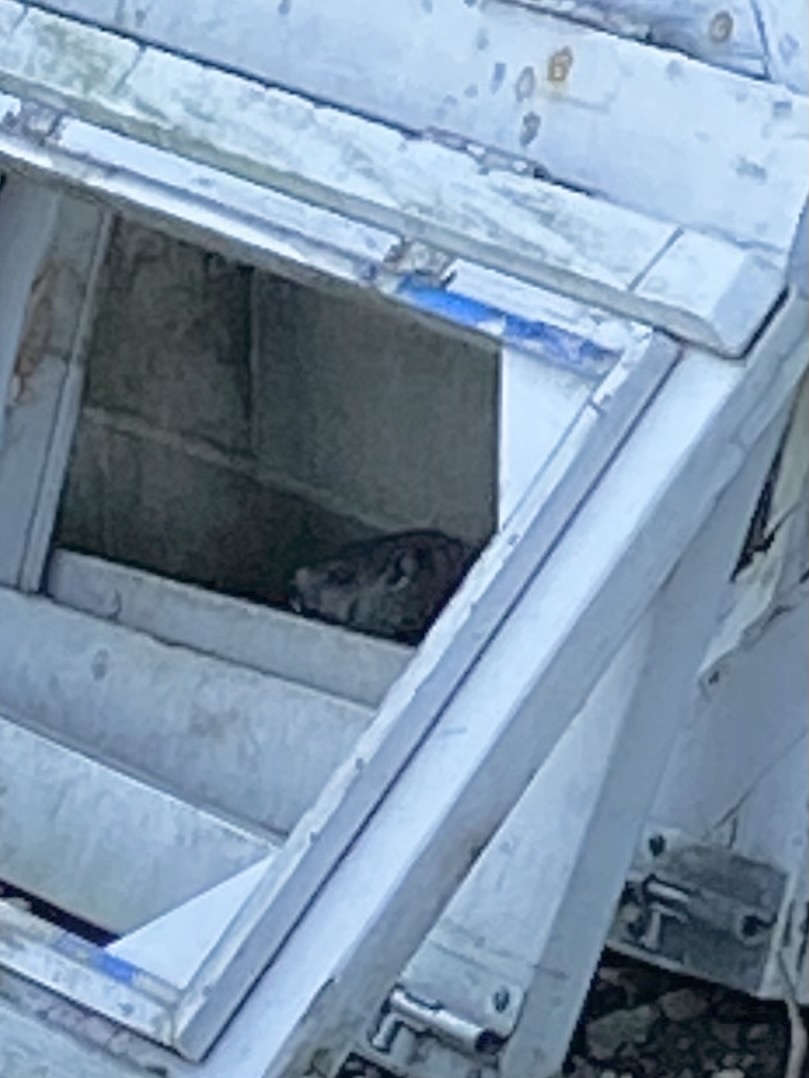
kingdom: Animalia
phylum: Chordata
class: Mammalia
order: Rodentia
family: Sciuridae
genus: Marmota
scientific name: Marmota monax
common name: Groundhog
